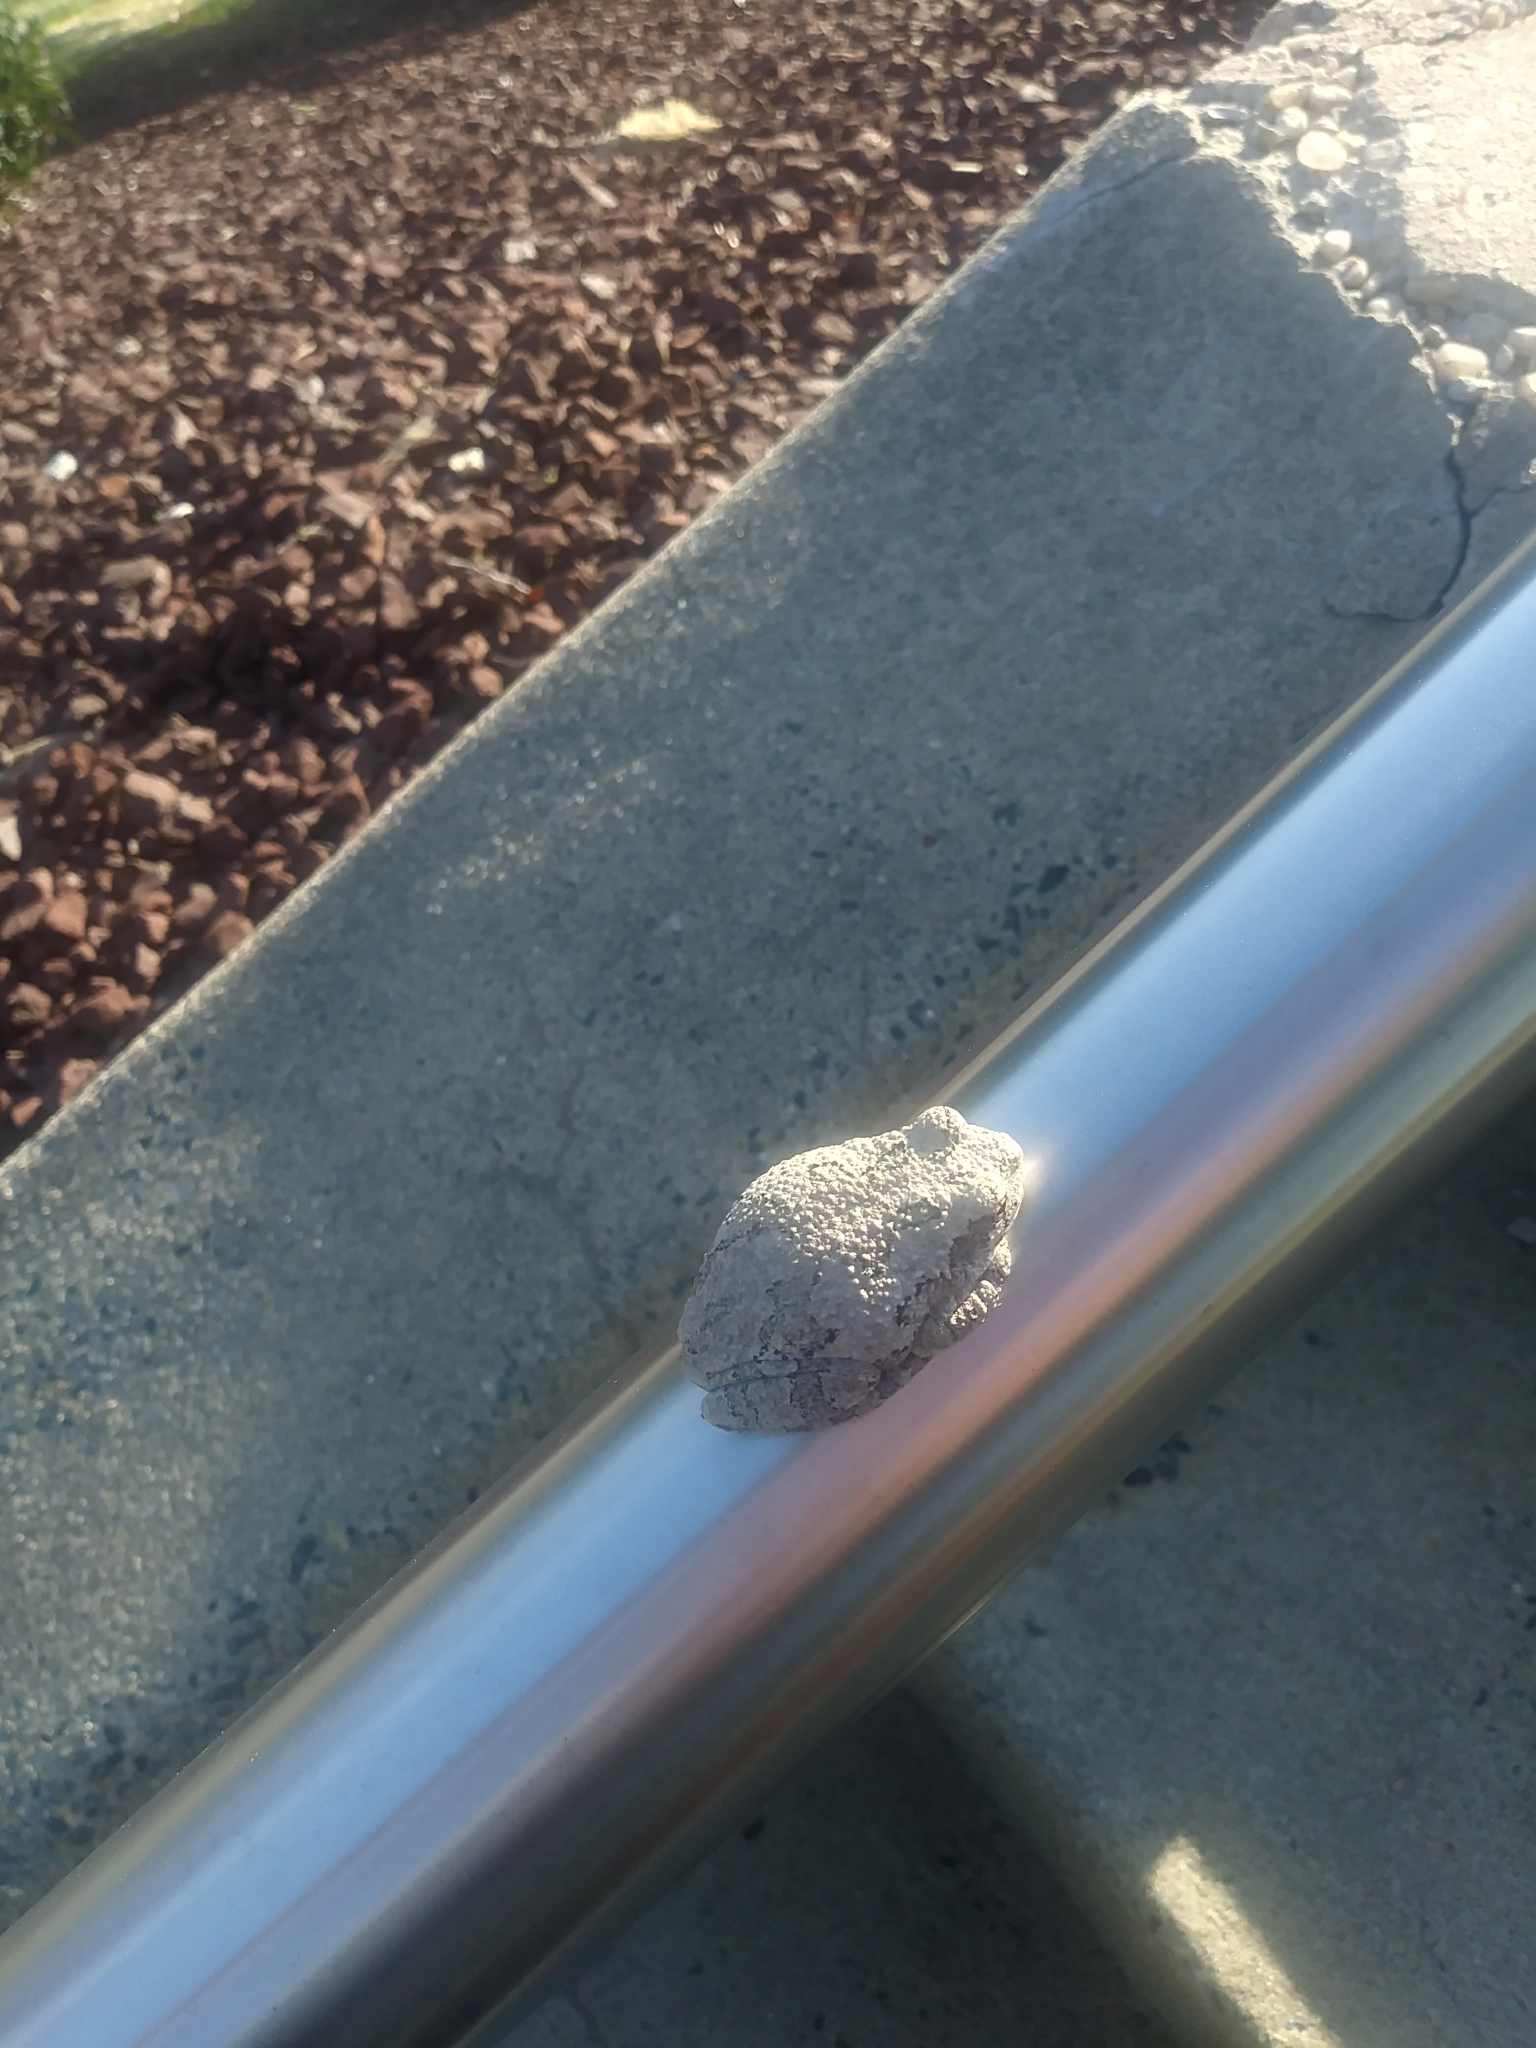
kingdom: Animalia
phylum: Chordata
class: Amphibia
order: Anura
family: Hylidae
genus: Hyla
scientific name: Hyla
